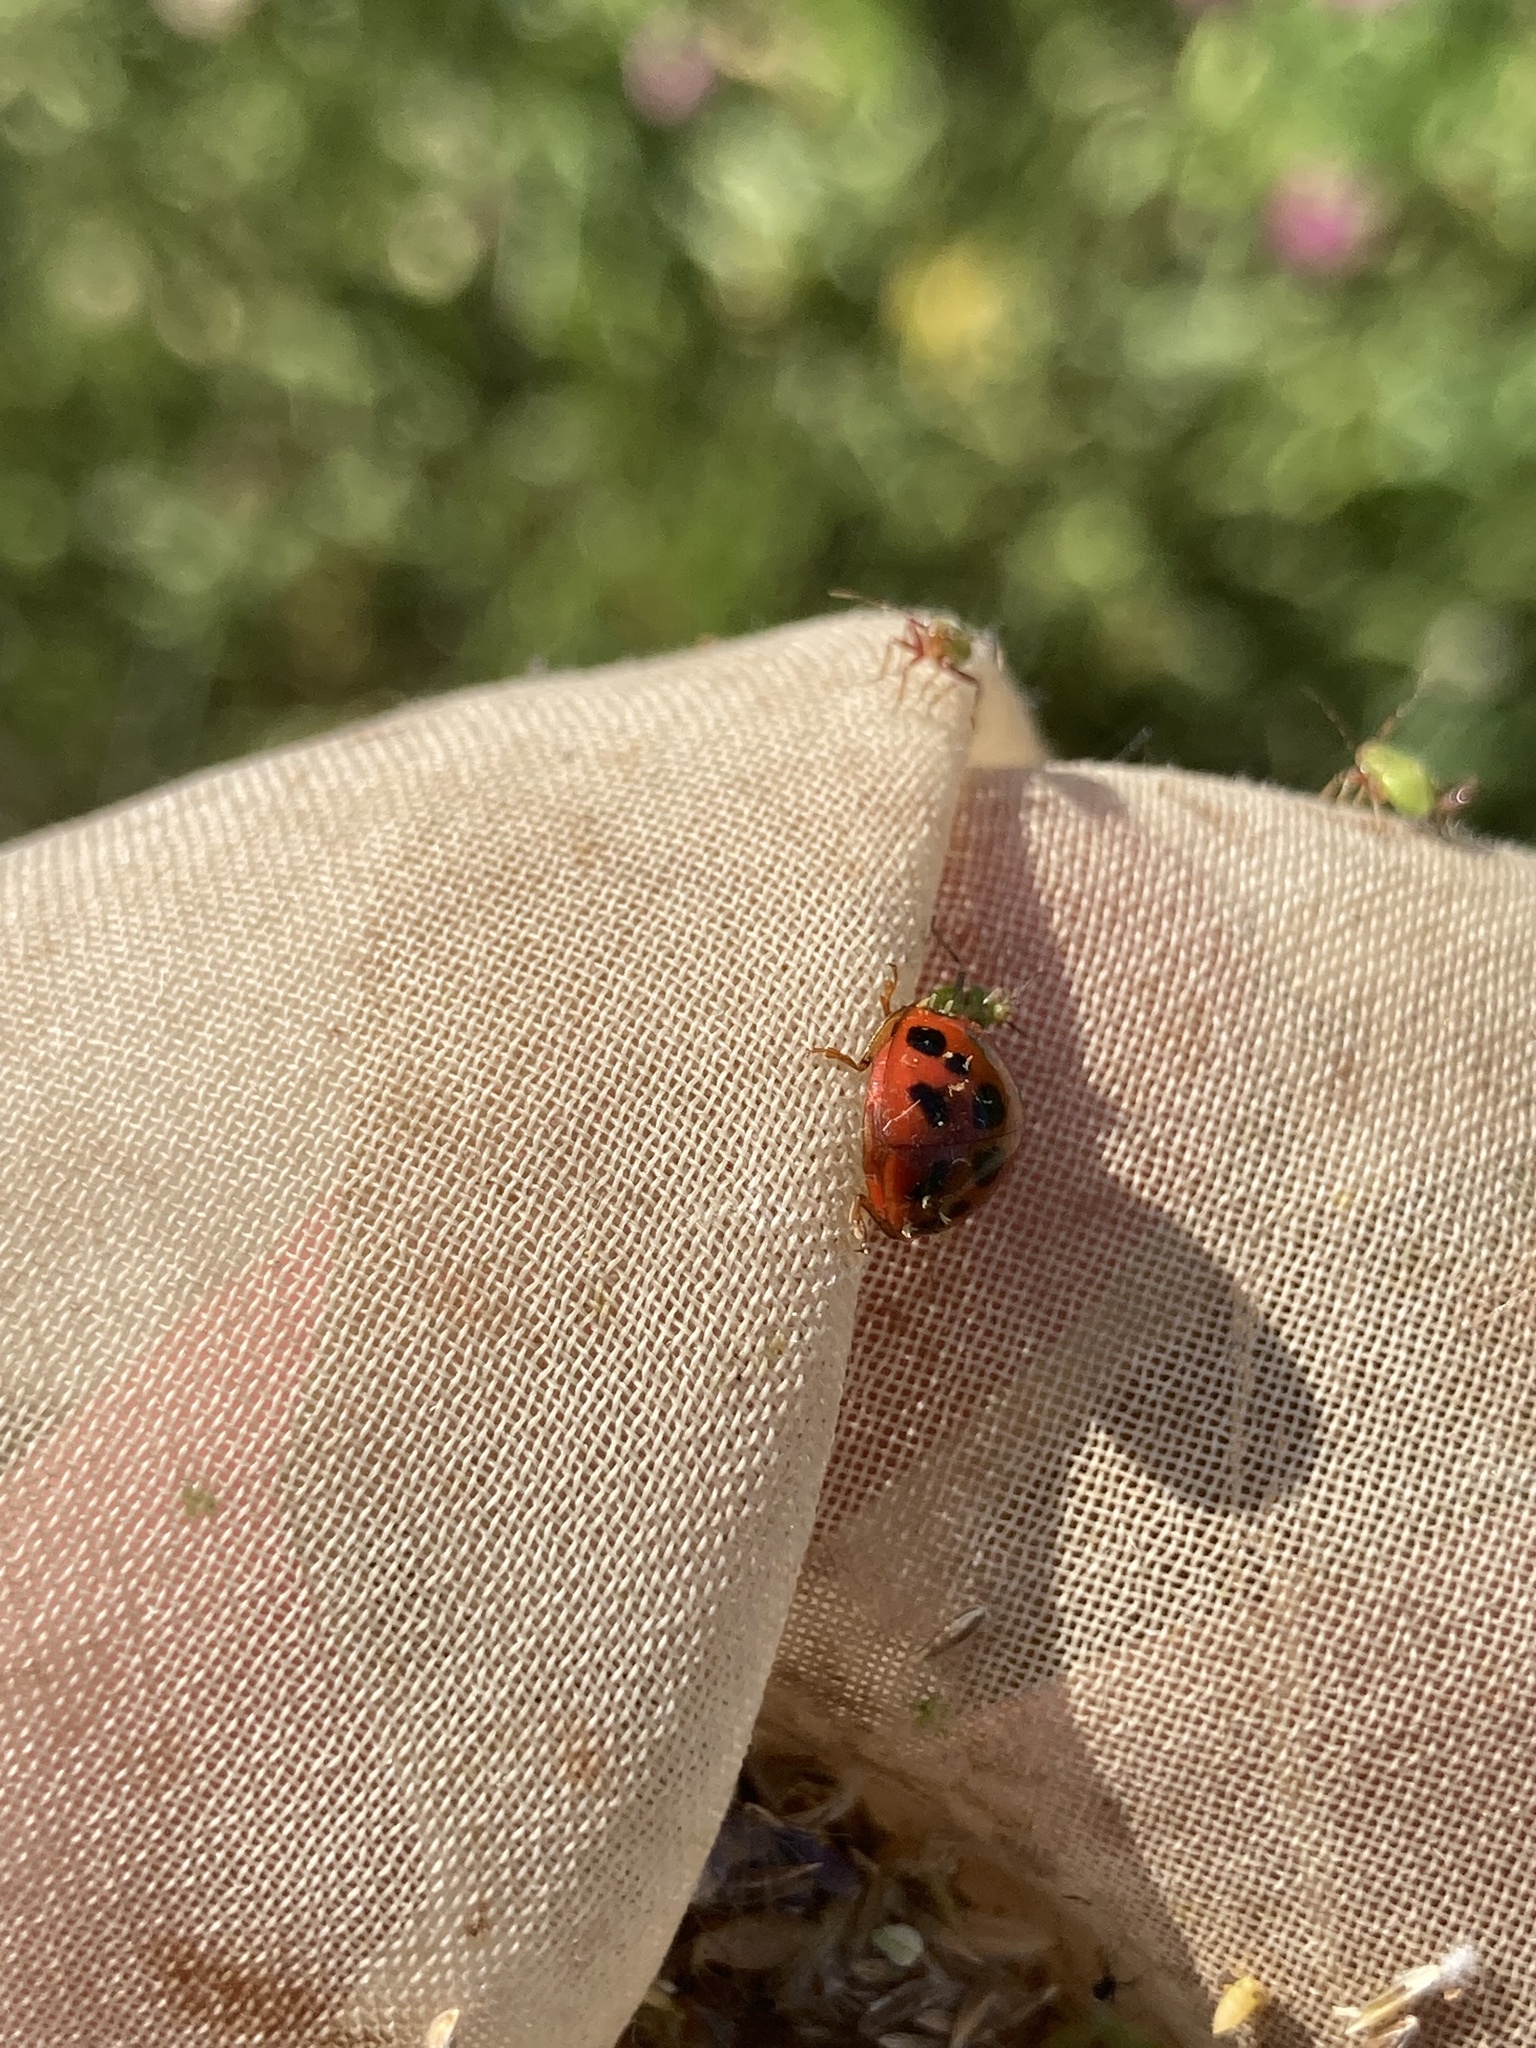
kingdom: Animalia
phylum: Arthropoda
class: Insecta
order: Coleoptera
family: Coccinellidae
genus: Harmonia
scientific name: Harmonia axyridis
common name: Harlequin ladybird
